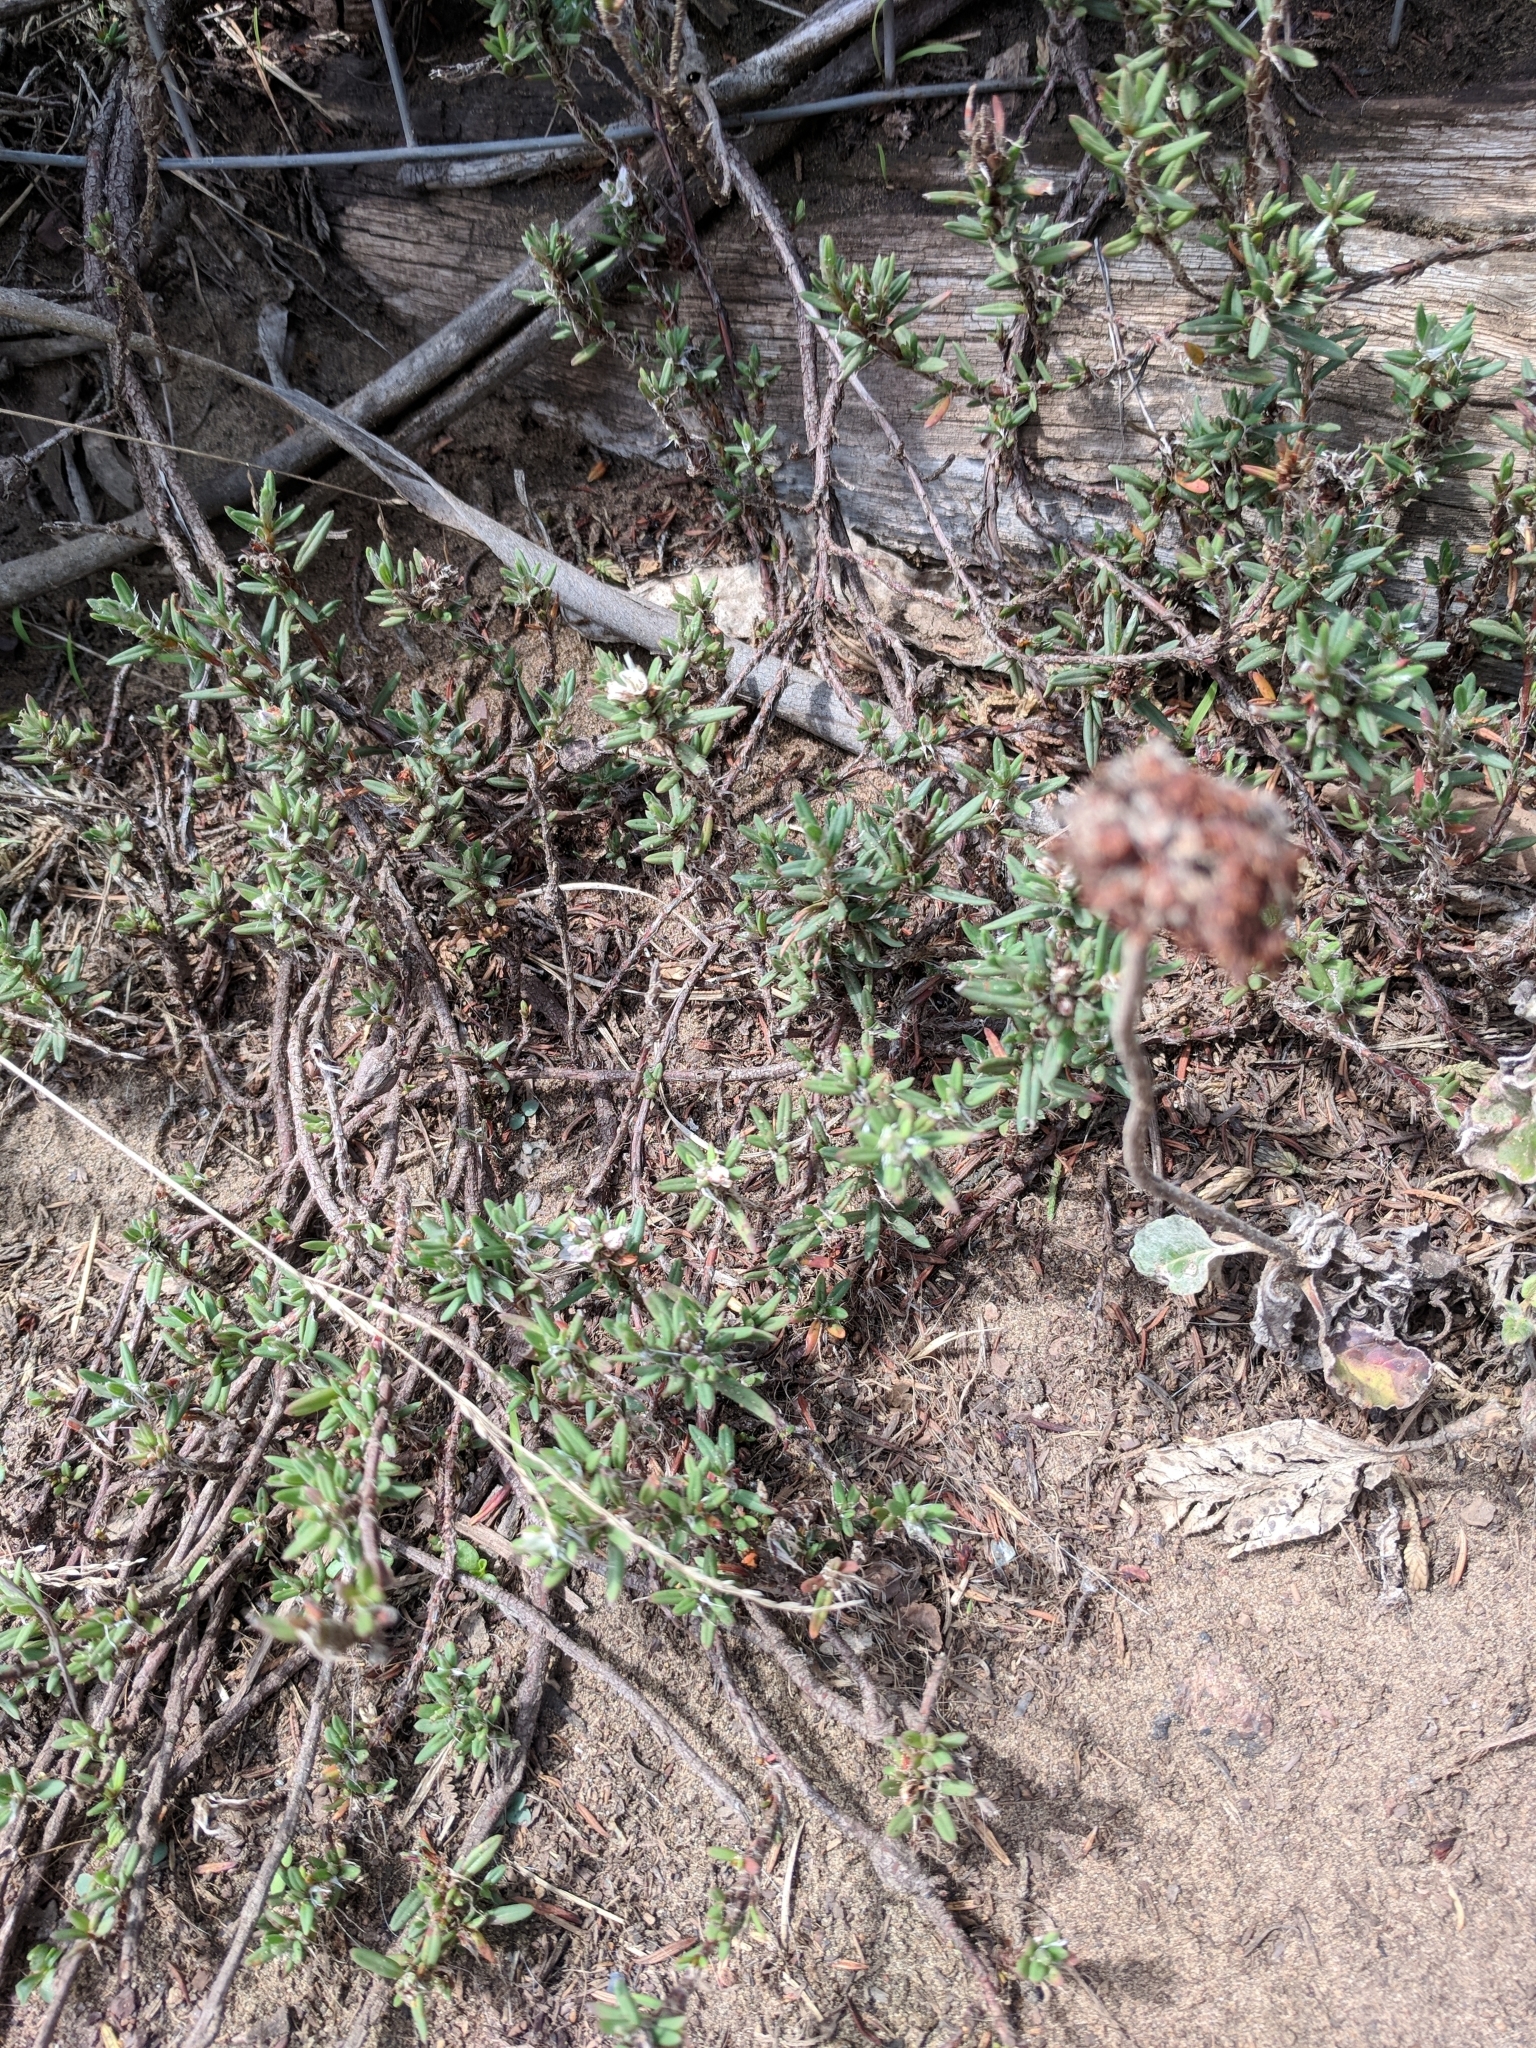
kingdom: Plantae
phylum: Tracheophyta
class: Magnoliopsida
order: Caryophyllales
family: Polygonaceae
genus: Polygonum
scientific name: Polygonum paronychia
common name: Dune knotweed
